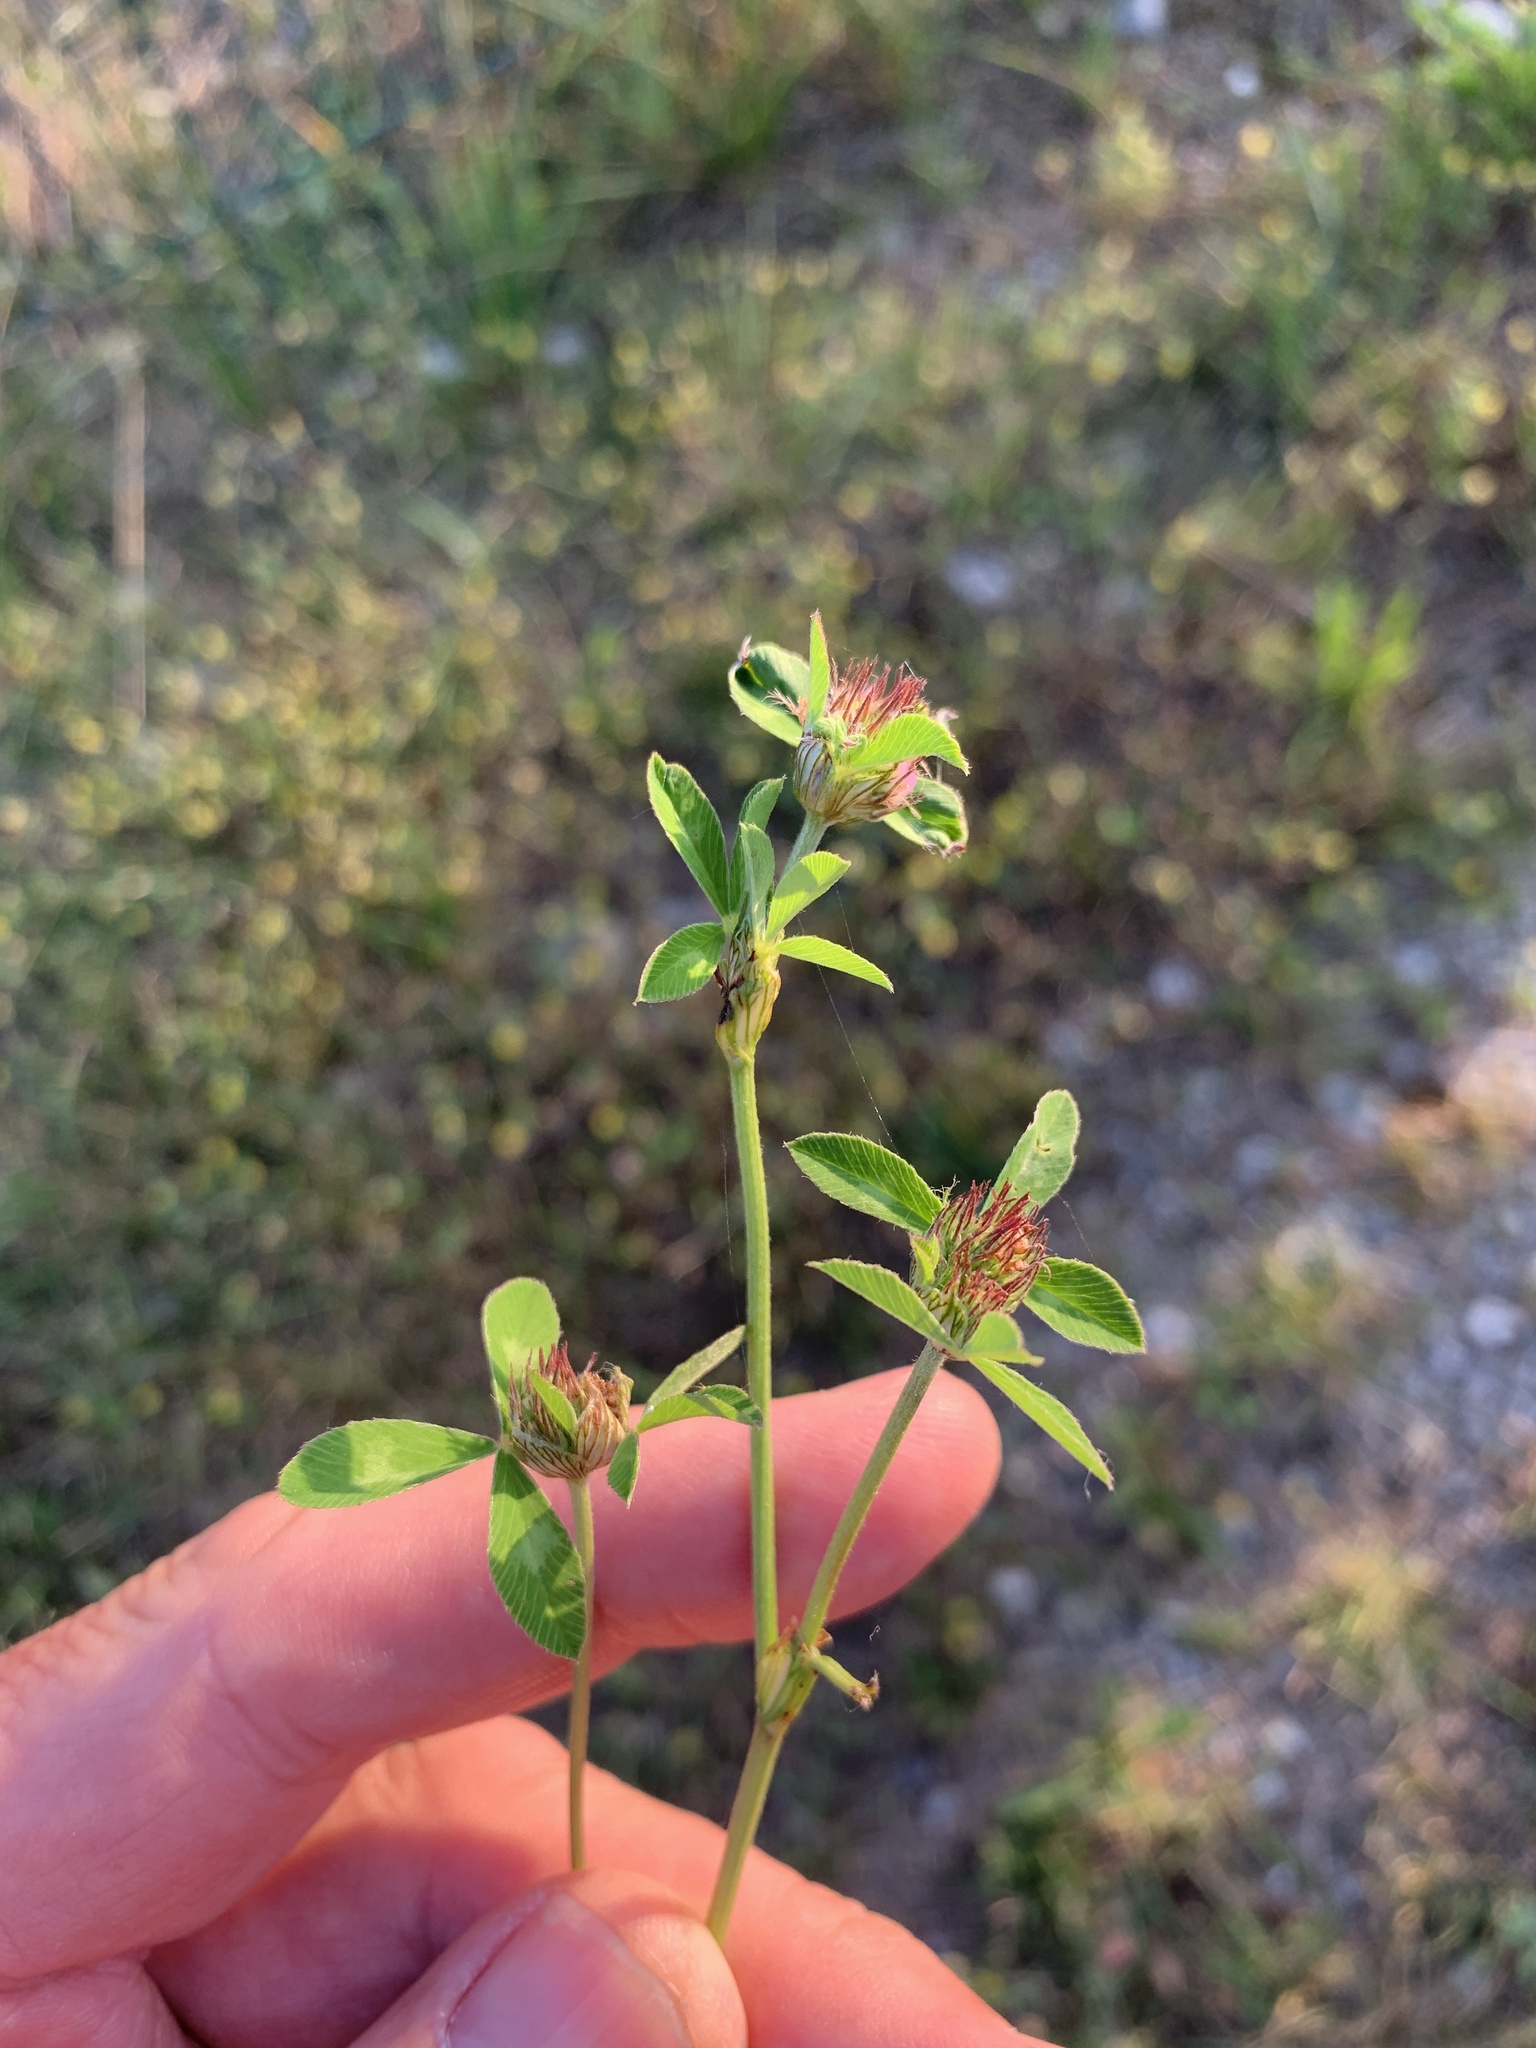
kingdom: Plantae
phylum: Tracheophyta
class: Magnoliopsida
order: Fabales
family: Fabaceae
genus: Trifolium
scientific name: Trifolium pratense
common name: Red clover
